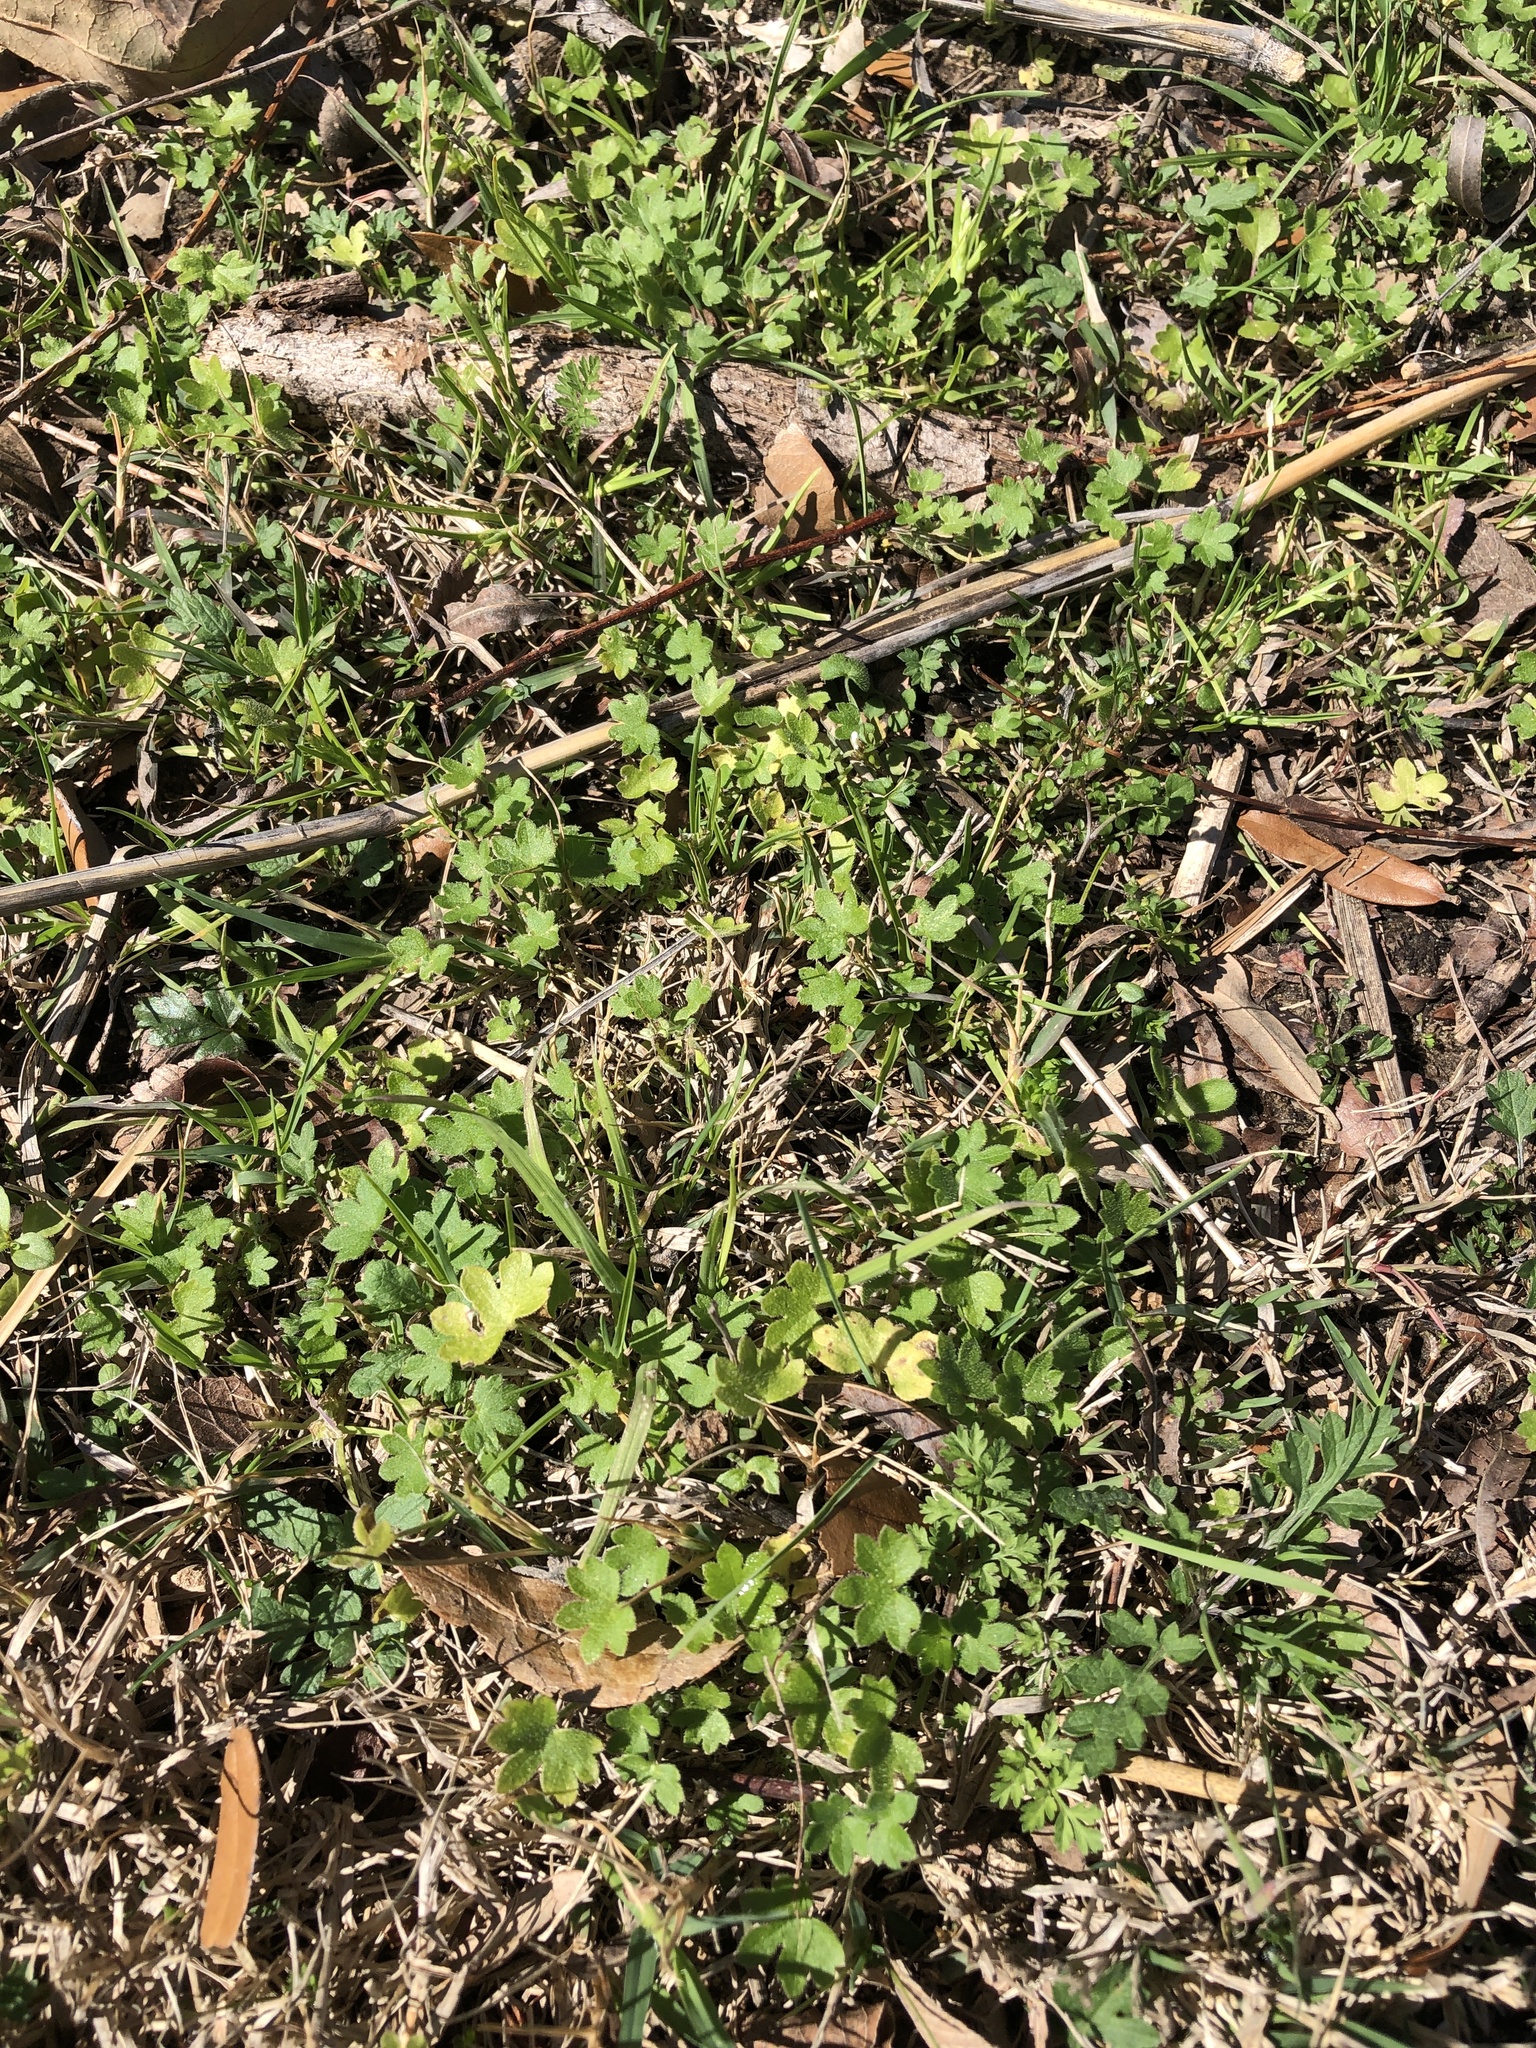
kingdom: Plantae
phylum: Tracheophyta
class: Magnoliopsida
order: Apiales
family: Apiaceae
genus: Bowlesia
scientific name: Bowlesia incana
